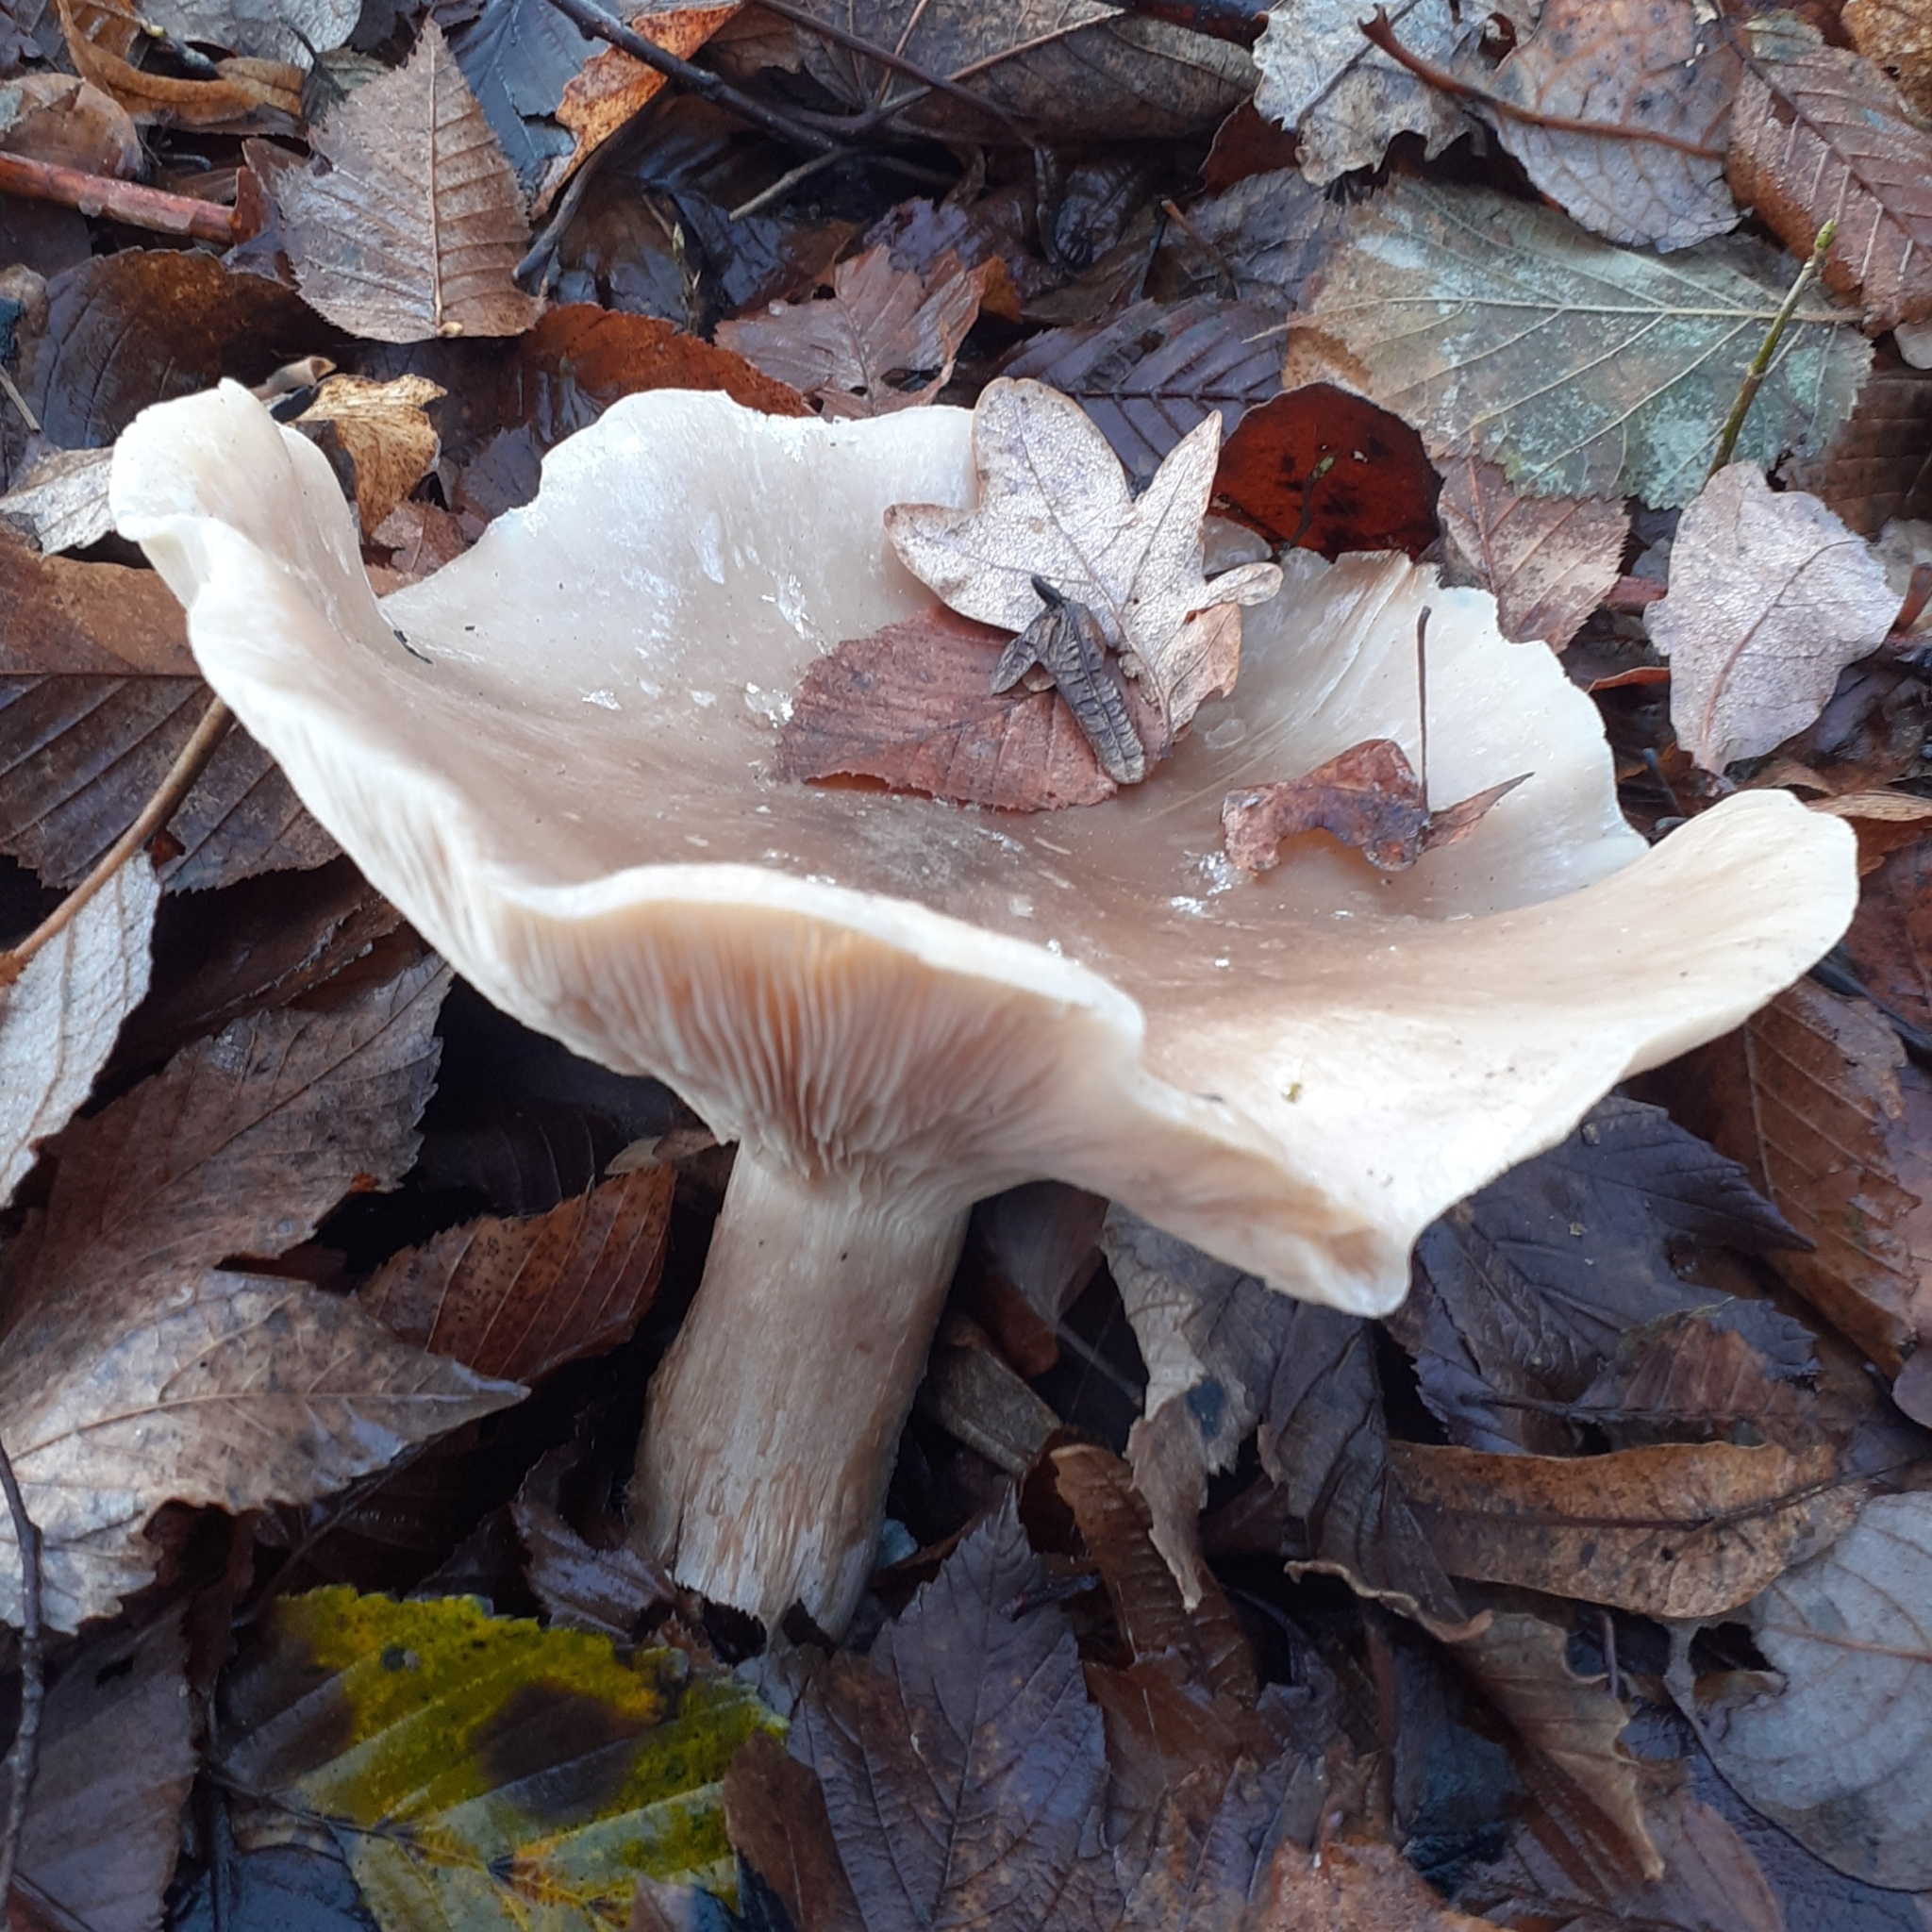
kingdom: Fungi
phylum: Basidiomycota
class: Agaricomycetes
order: Agaricales
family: Tricholomataceae
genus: Clitocybe
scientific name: Clitocybe nebularis
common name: Clouded agaric
